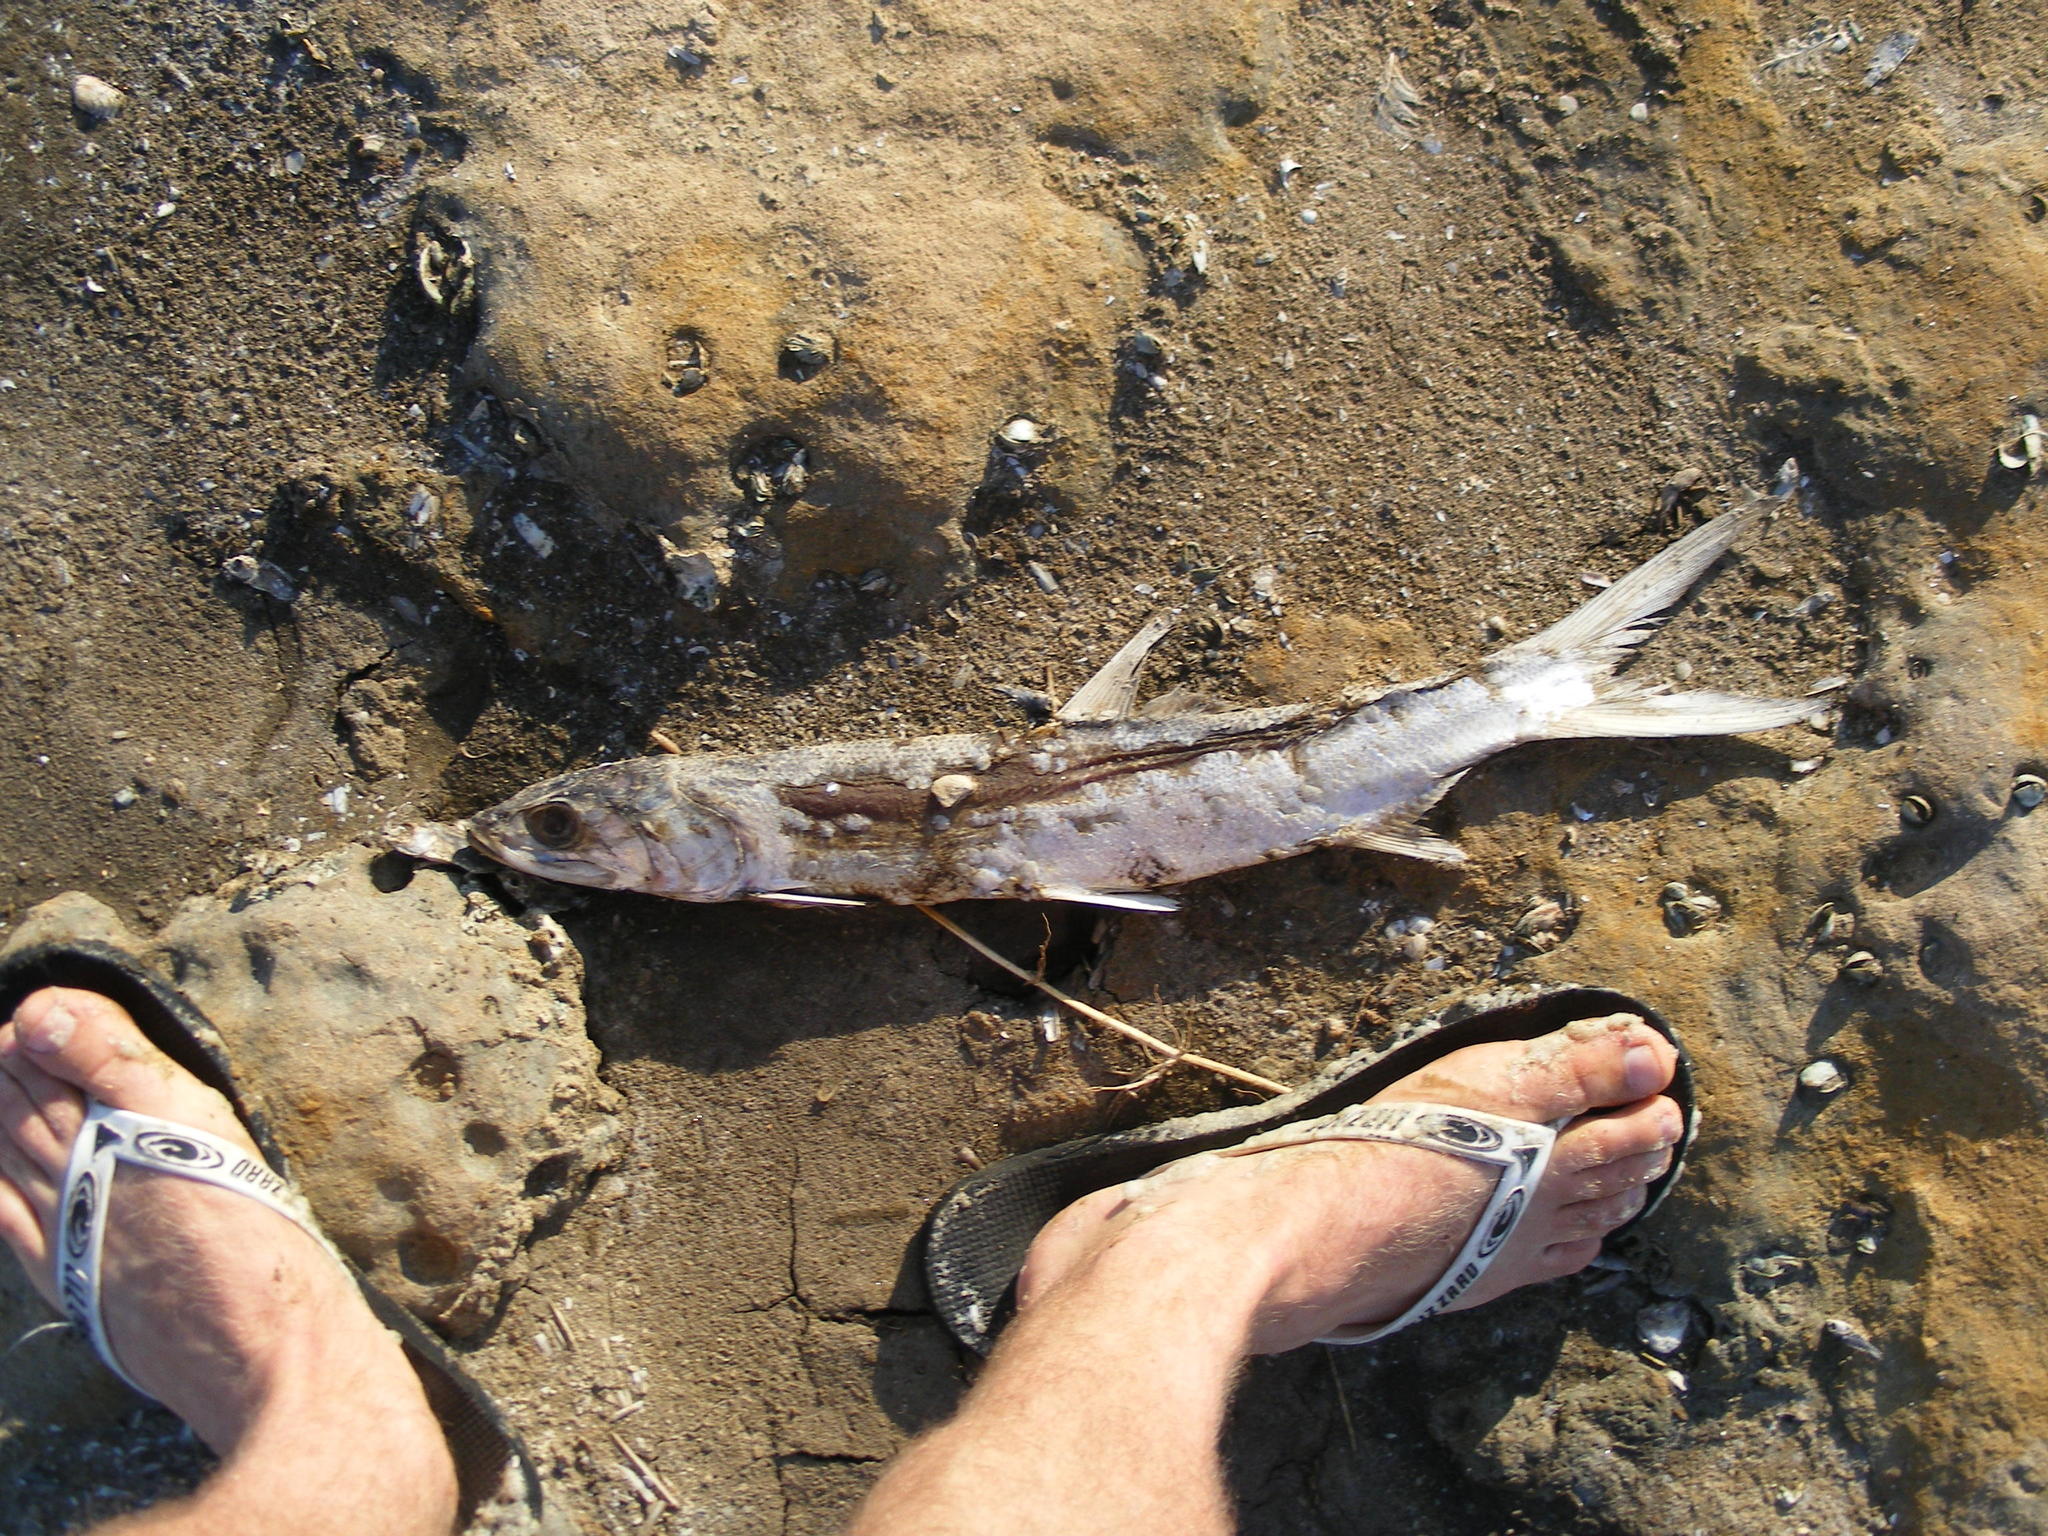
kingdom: Animalia
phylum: Chordata
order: Elopiformes
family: Elopidae
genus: Elops
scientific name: Elops machnata
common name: Ladyfish
